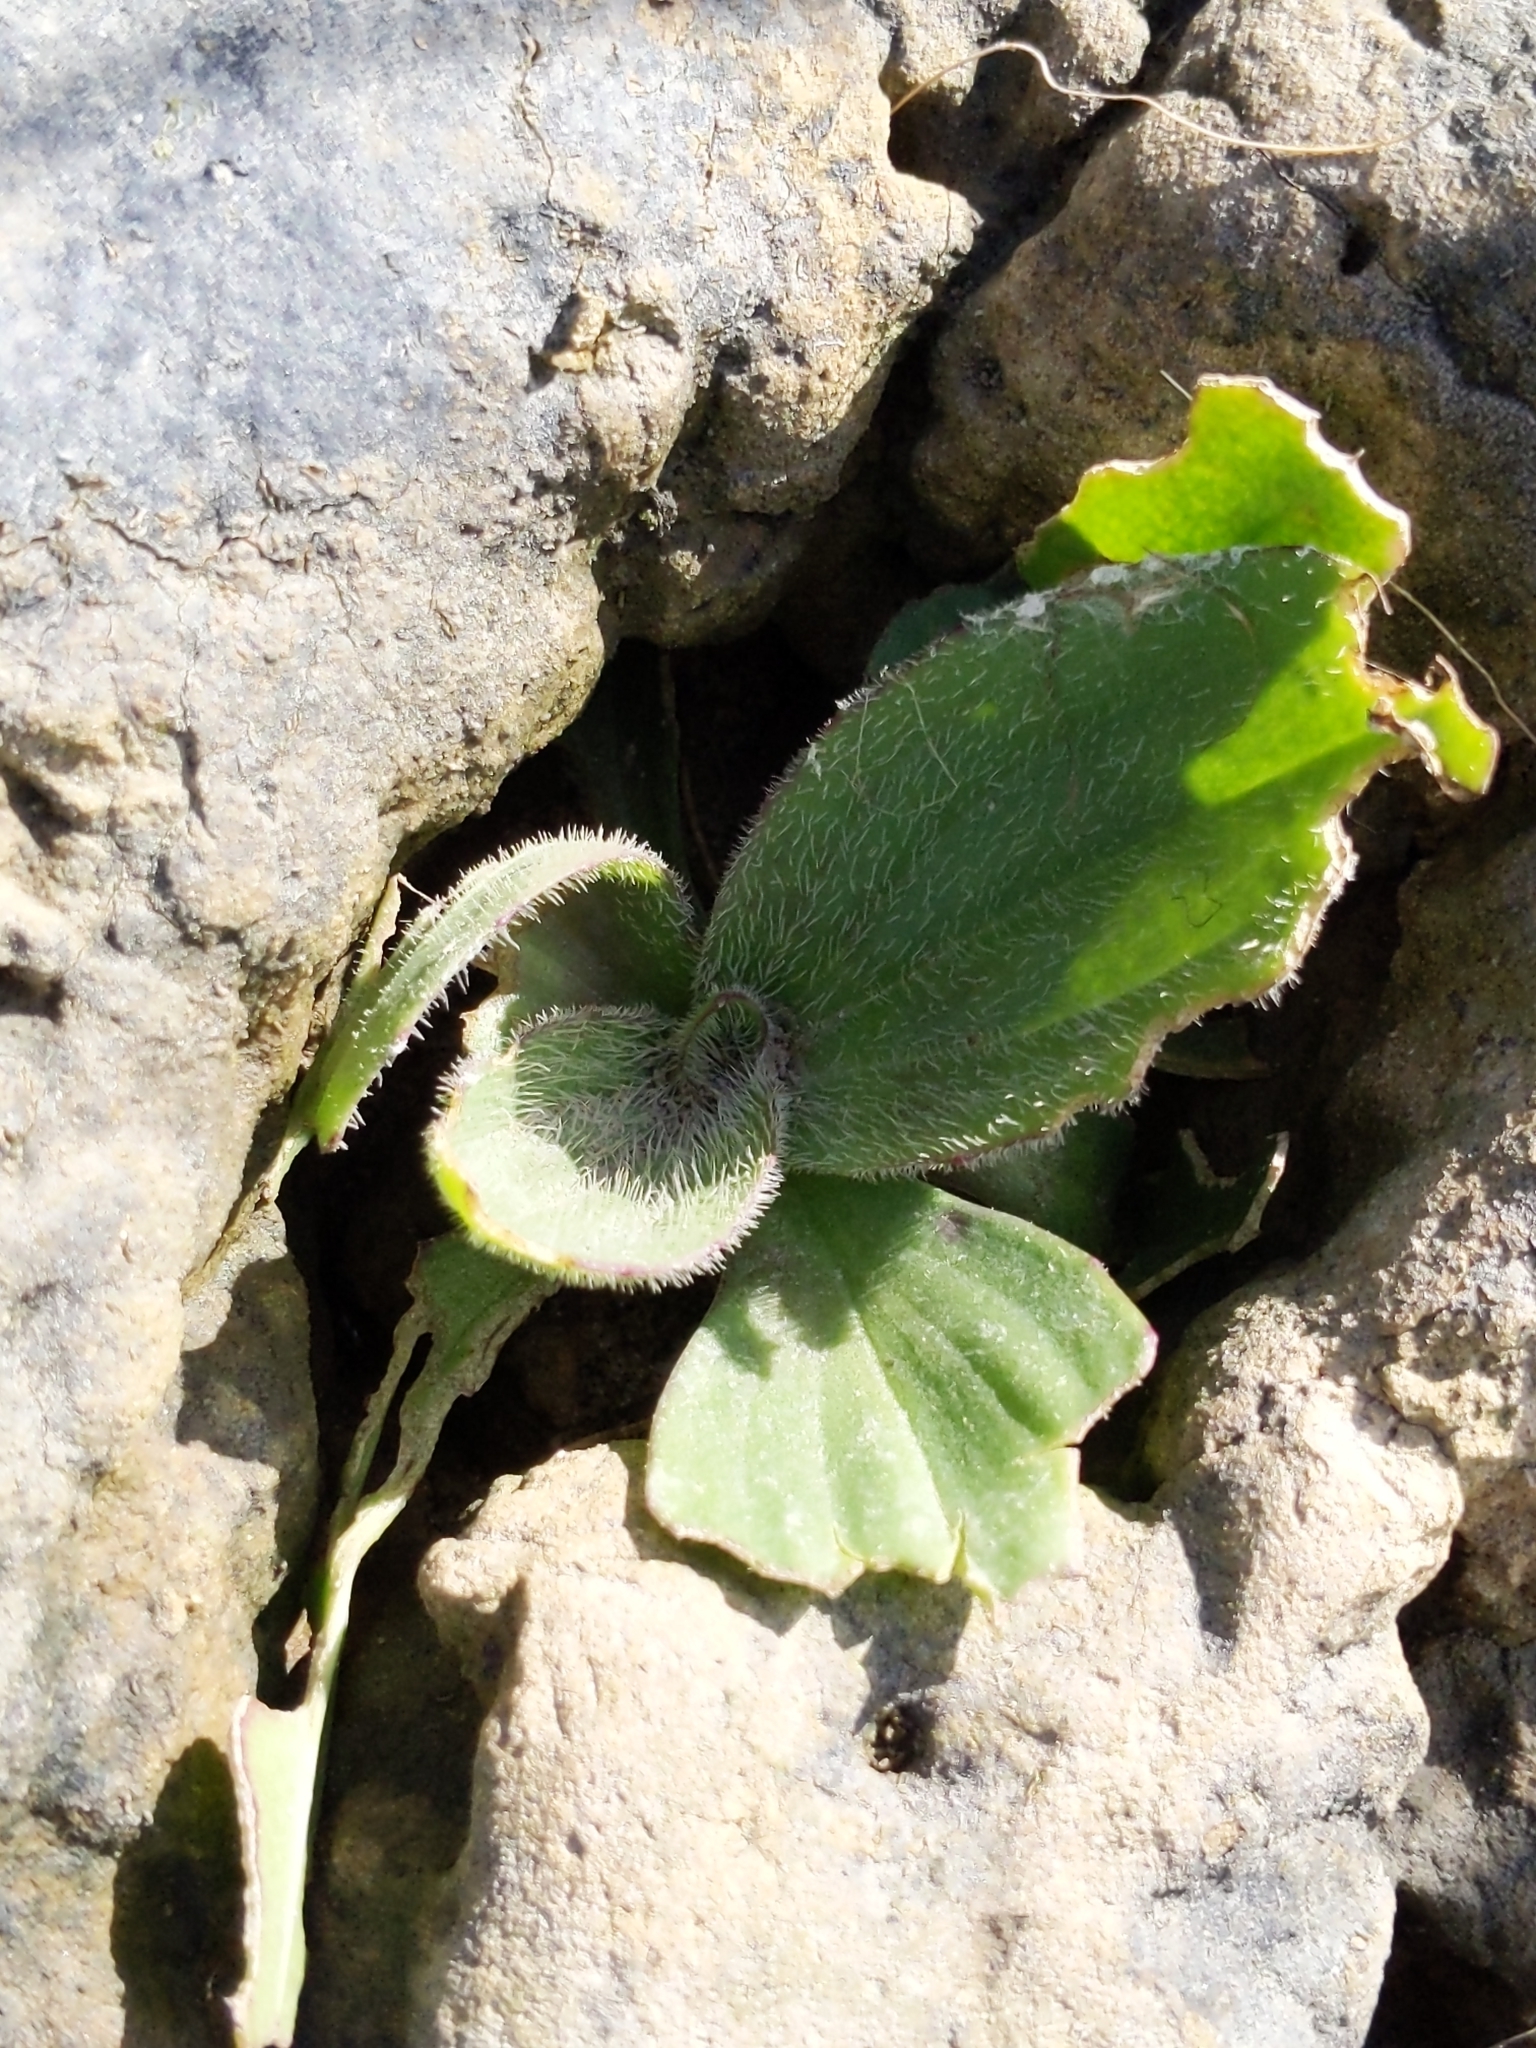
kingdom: Plantae
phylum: Tracheophyta
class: Magnoliopsida
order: Lamiales
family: Plantaginaceae
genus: Plantago
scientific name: Plantago subnuda
